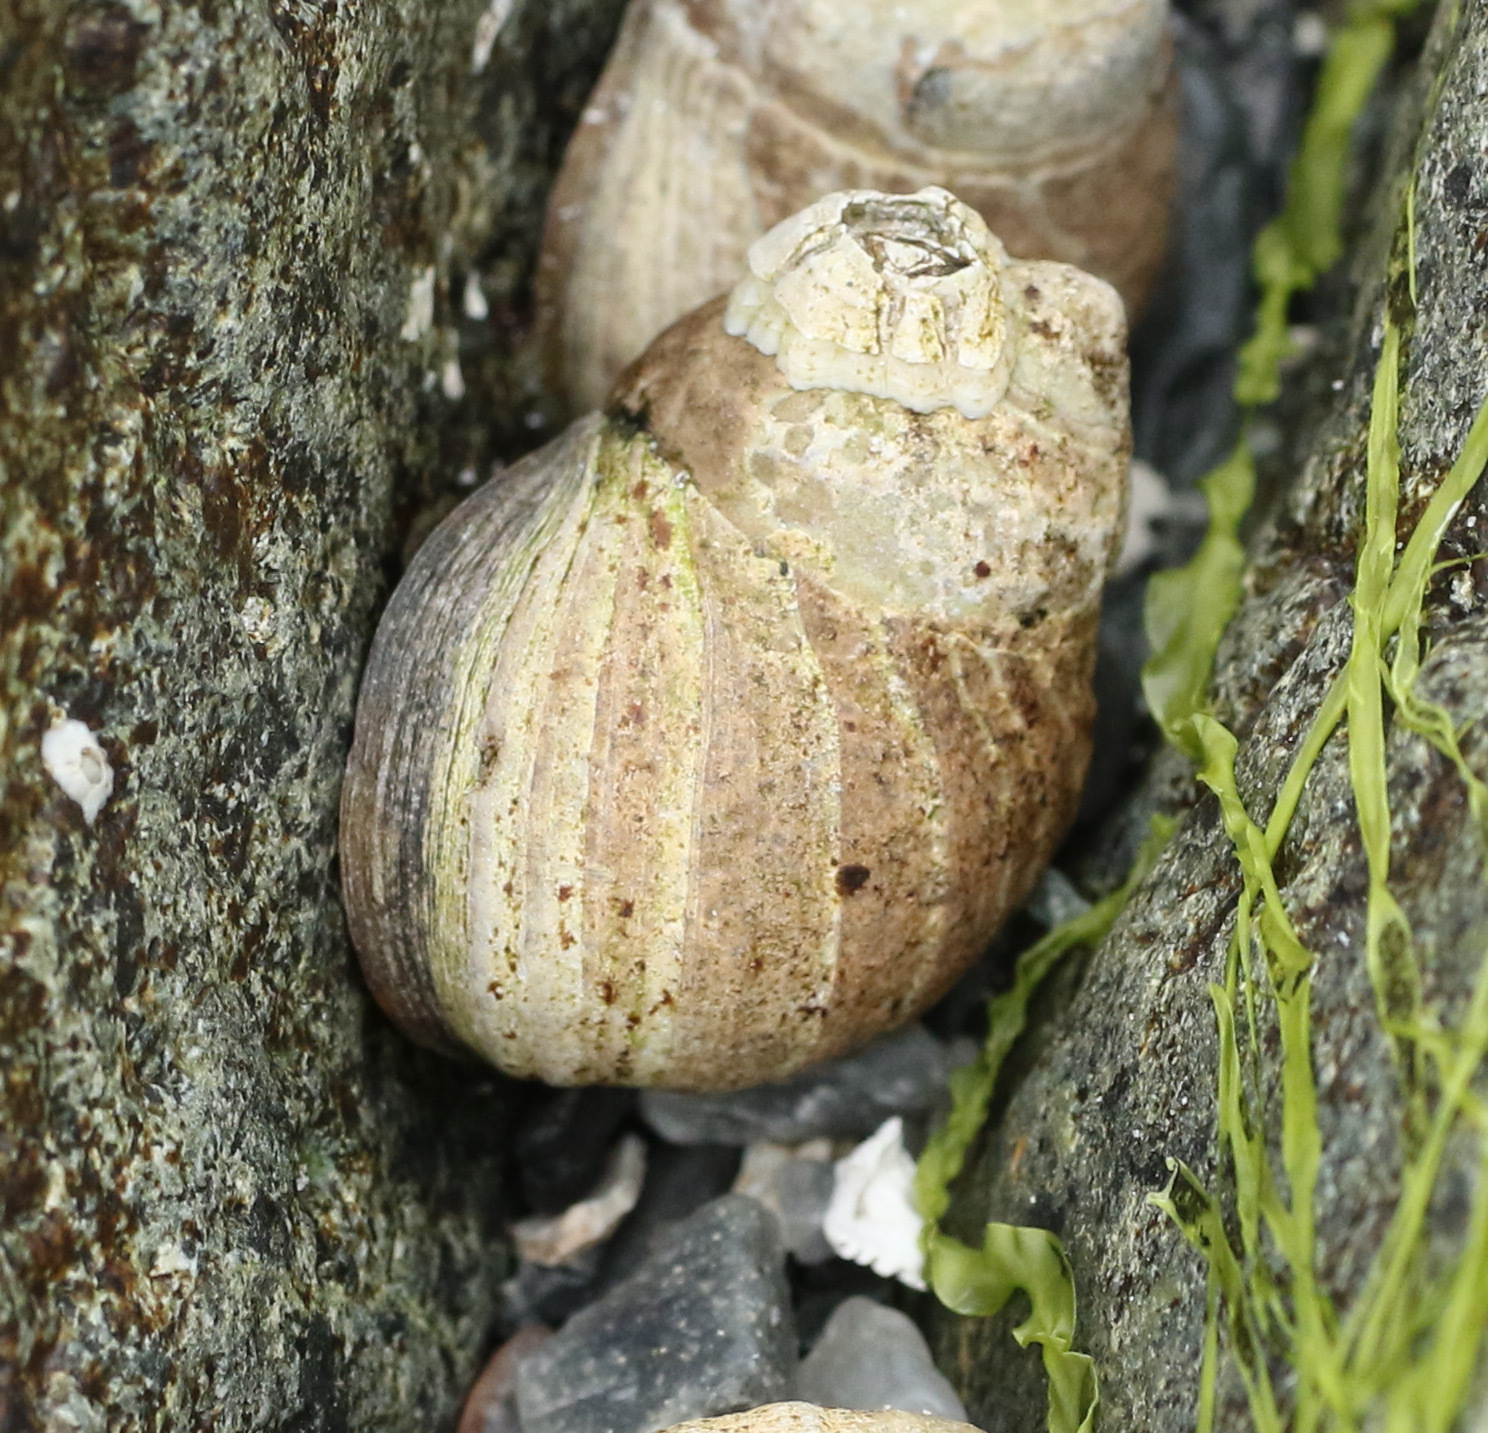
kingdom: Animalia
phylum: Mollusca
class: Gastropoda
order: Littorinimorpha
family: Littorinidae
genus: Littorina
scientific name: Littorina littorea
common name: Common periwinkle
